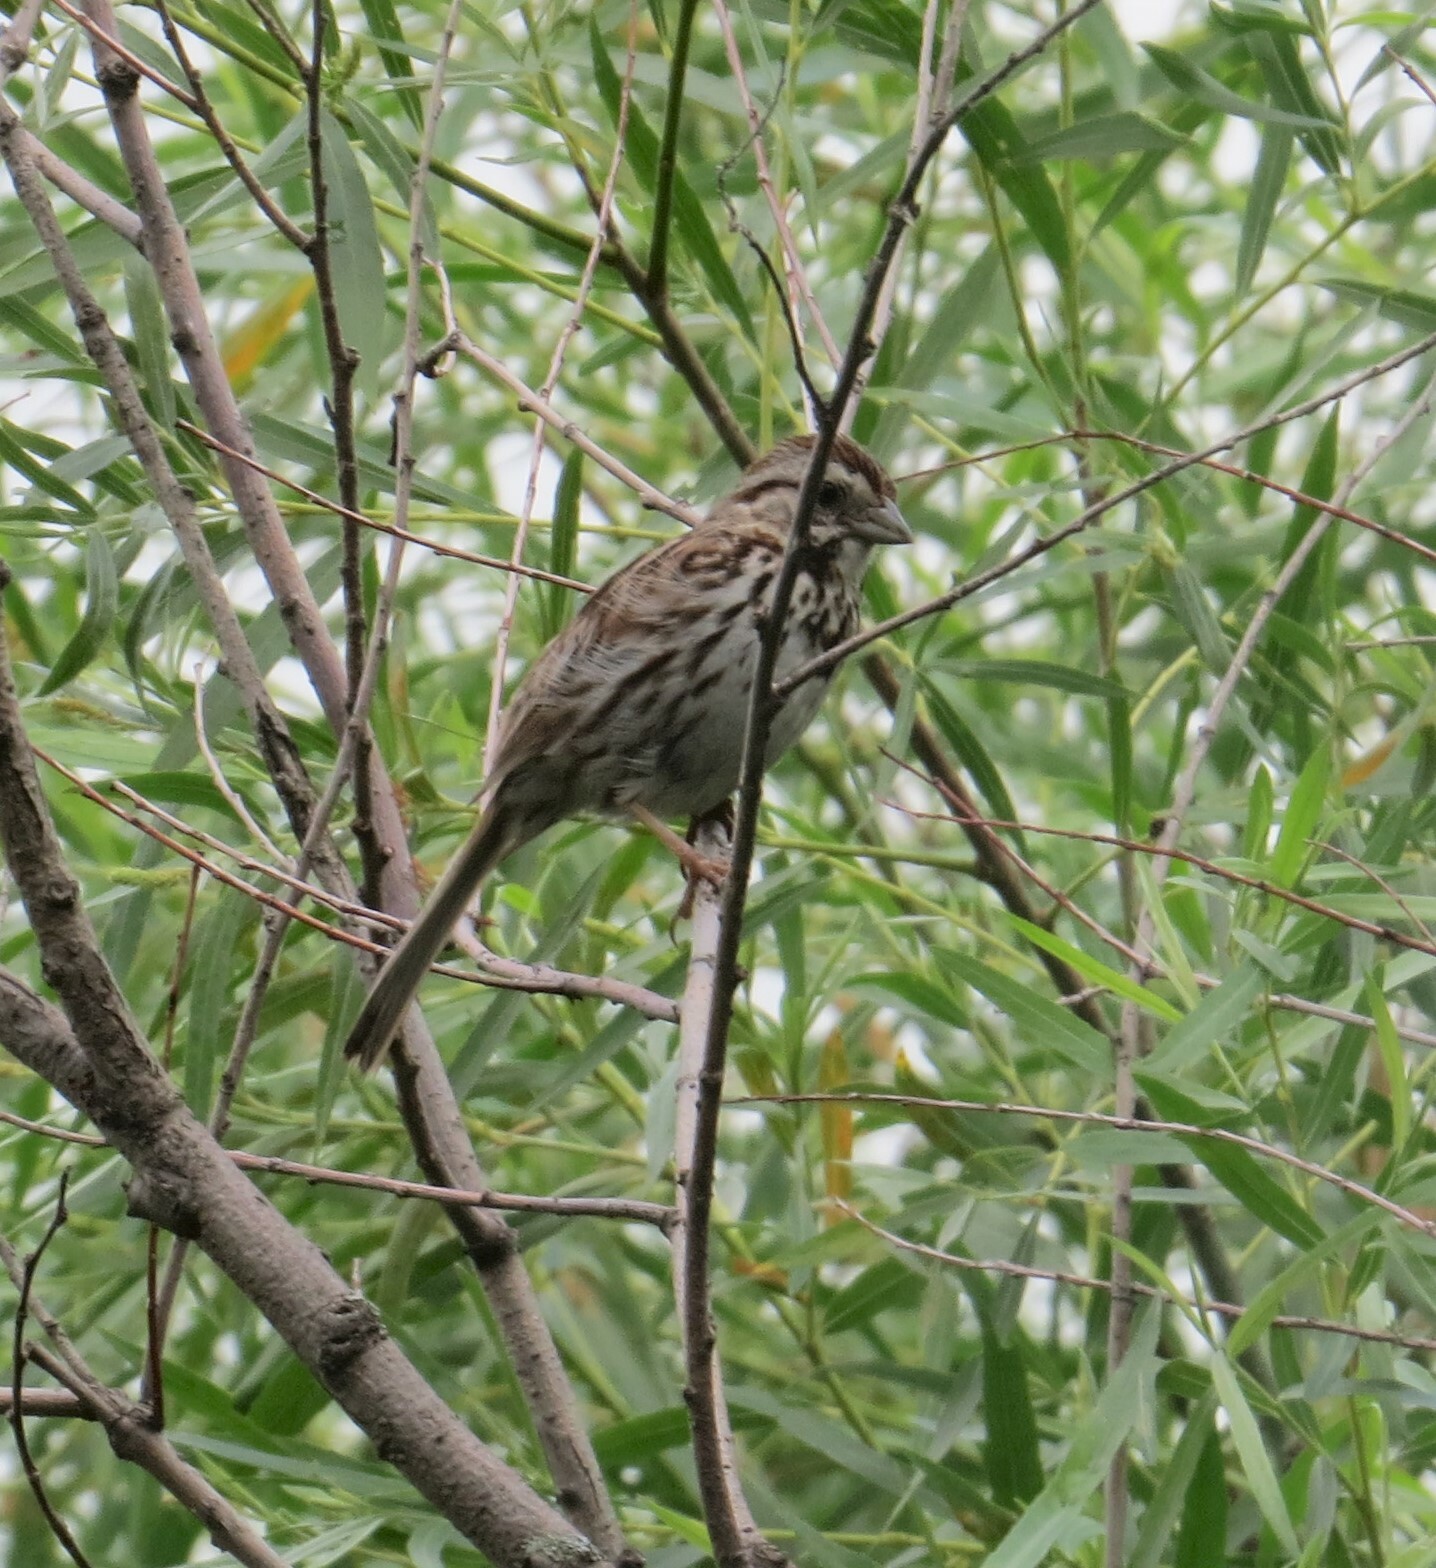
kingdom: Animalia
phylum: Chordata
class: Aves
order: Passeriformes
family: Passerellidae
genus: Melospiza
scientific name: Melospiza melodia
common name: Song sparrow
